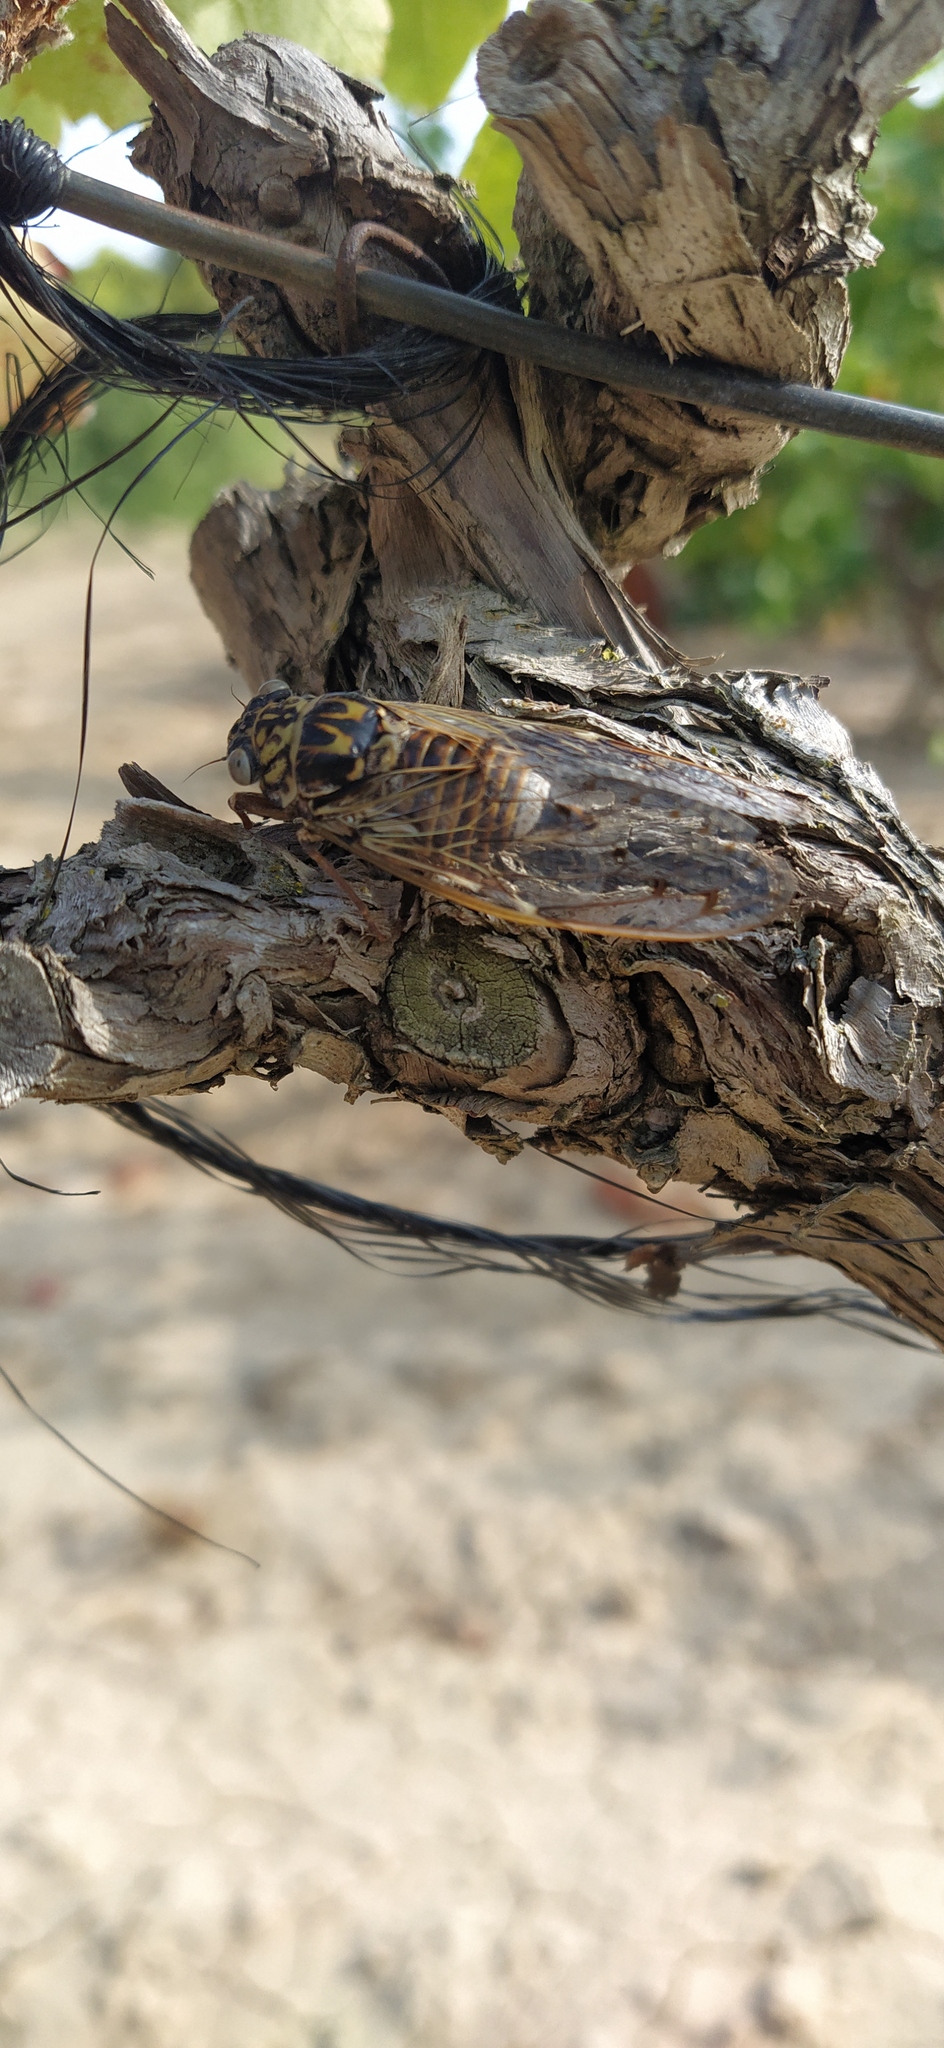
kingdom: Animalia
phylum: Arthropoda
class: Insecta
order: Hemiptera
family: Cicadidae
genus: Cicada
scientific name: Cicada orni
